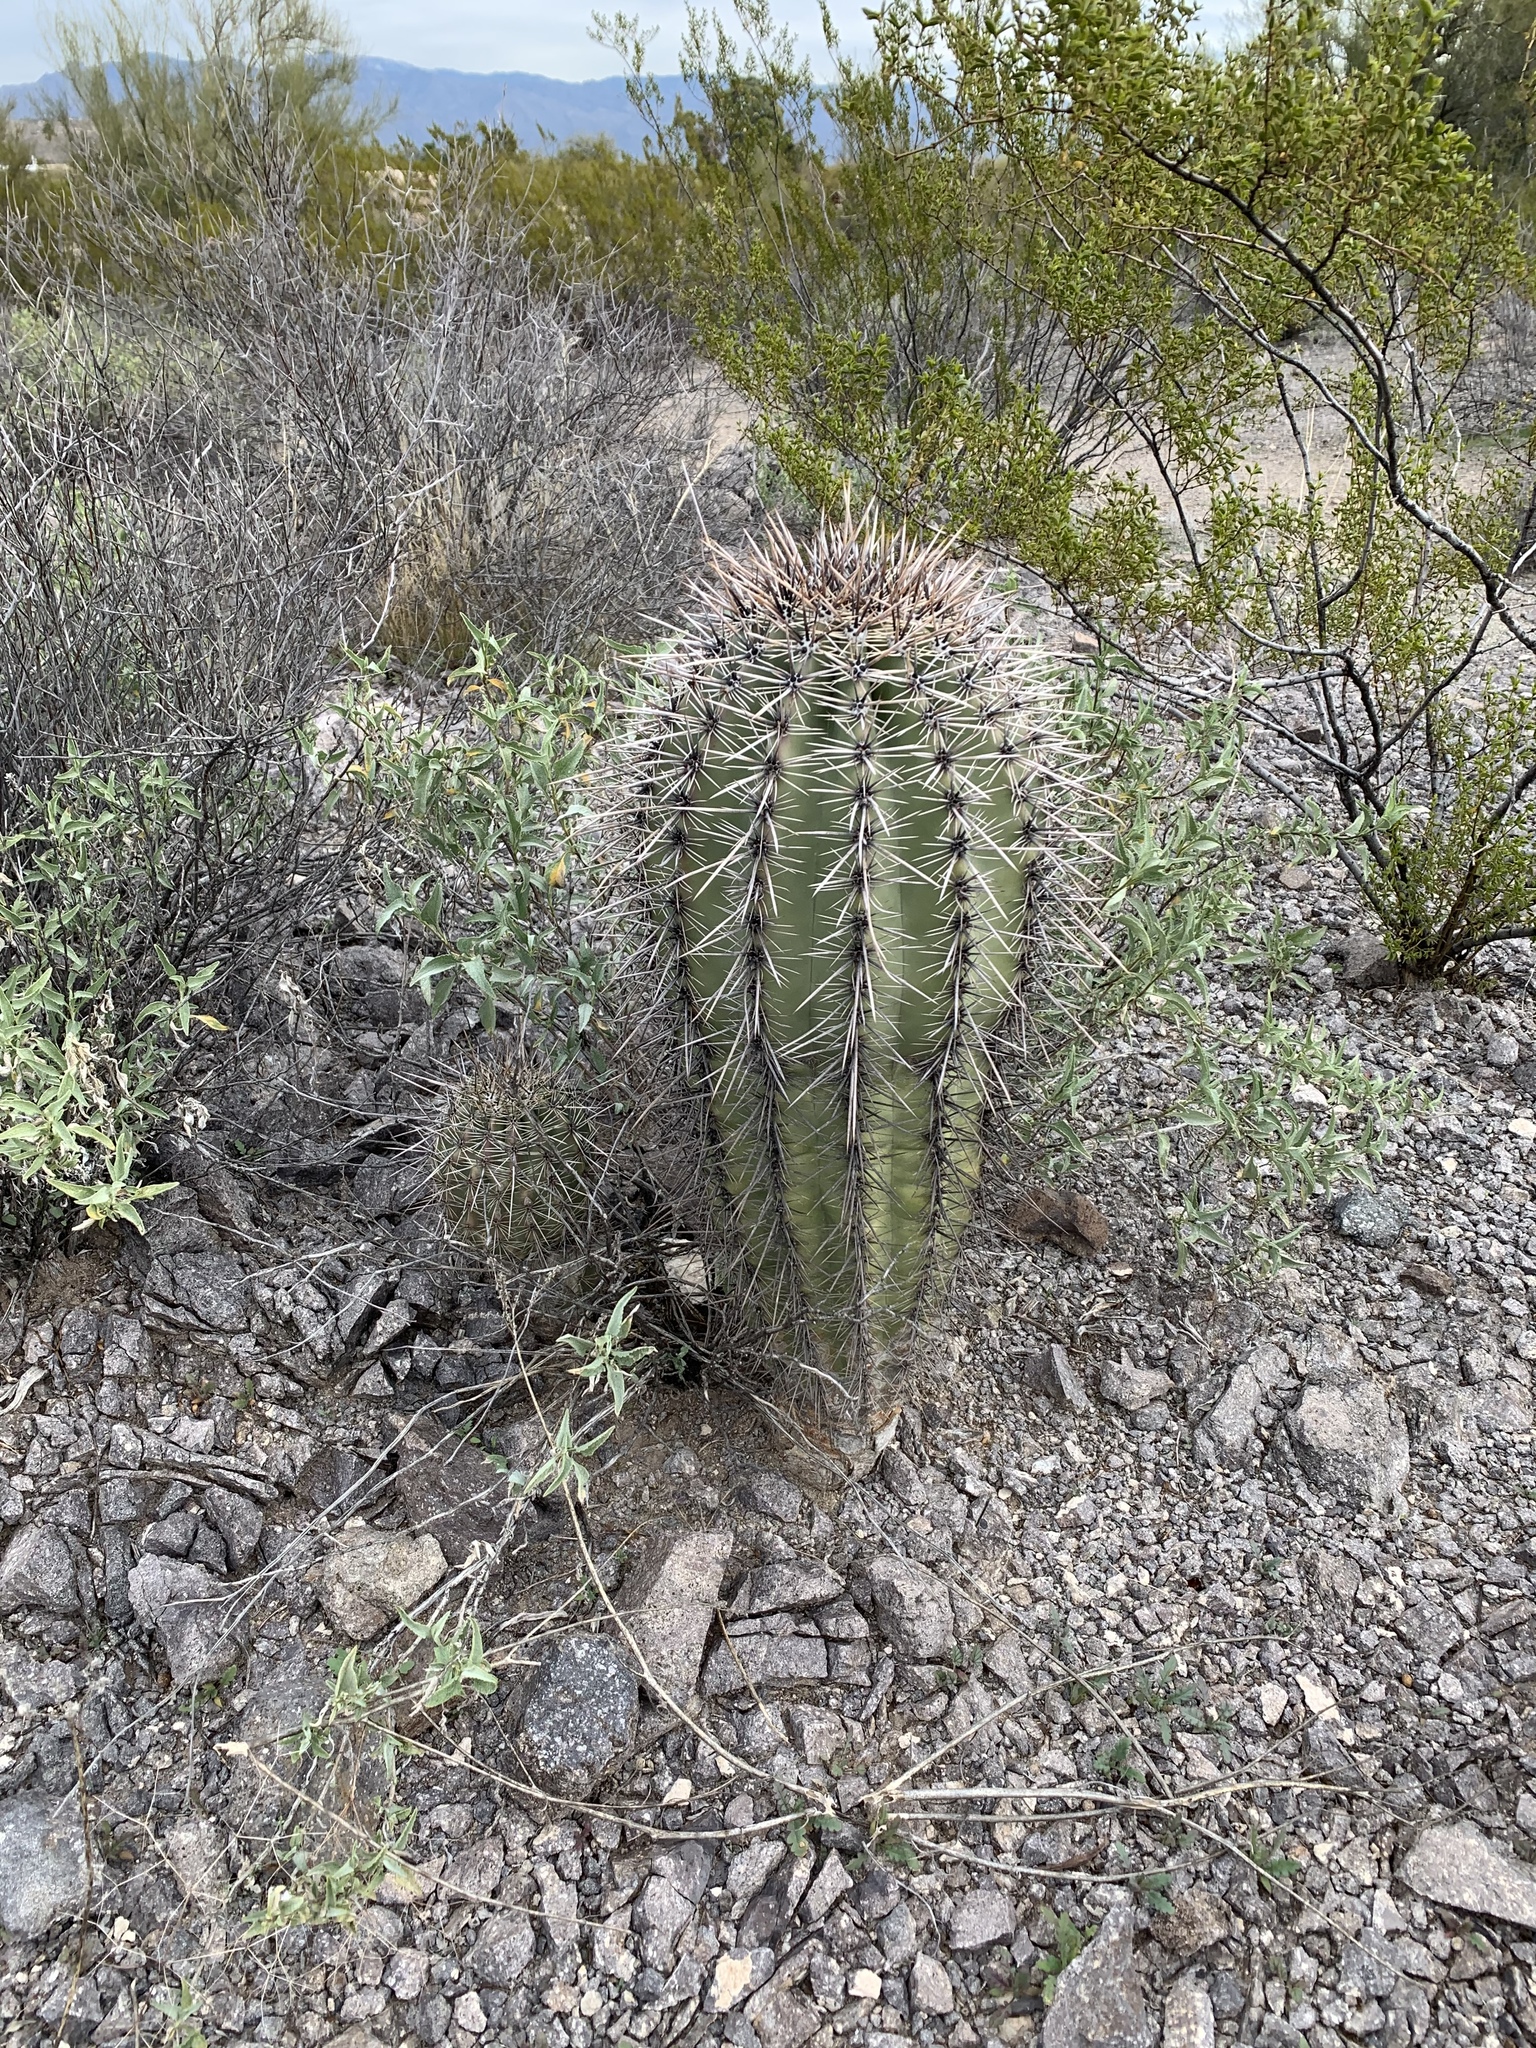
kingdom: Plantae
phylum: Tracheophyta
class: Magnoliopsida
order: Caryophyllales
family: Cactaceae
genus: Carnegiea
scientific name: Carnegiea gigantea
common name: Saguaro
